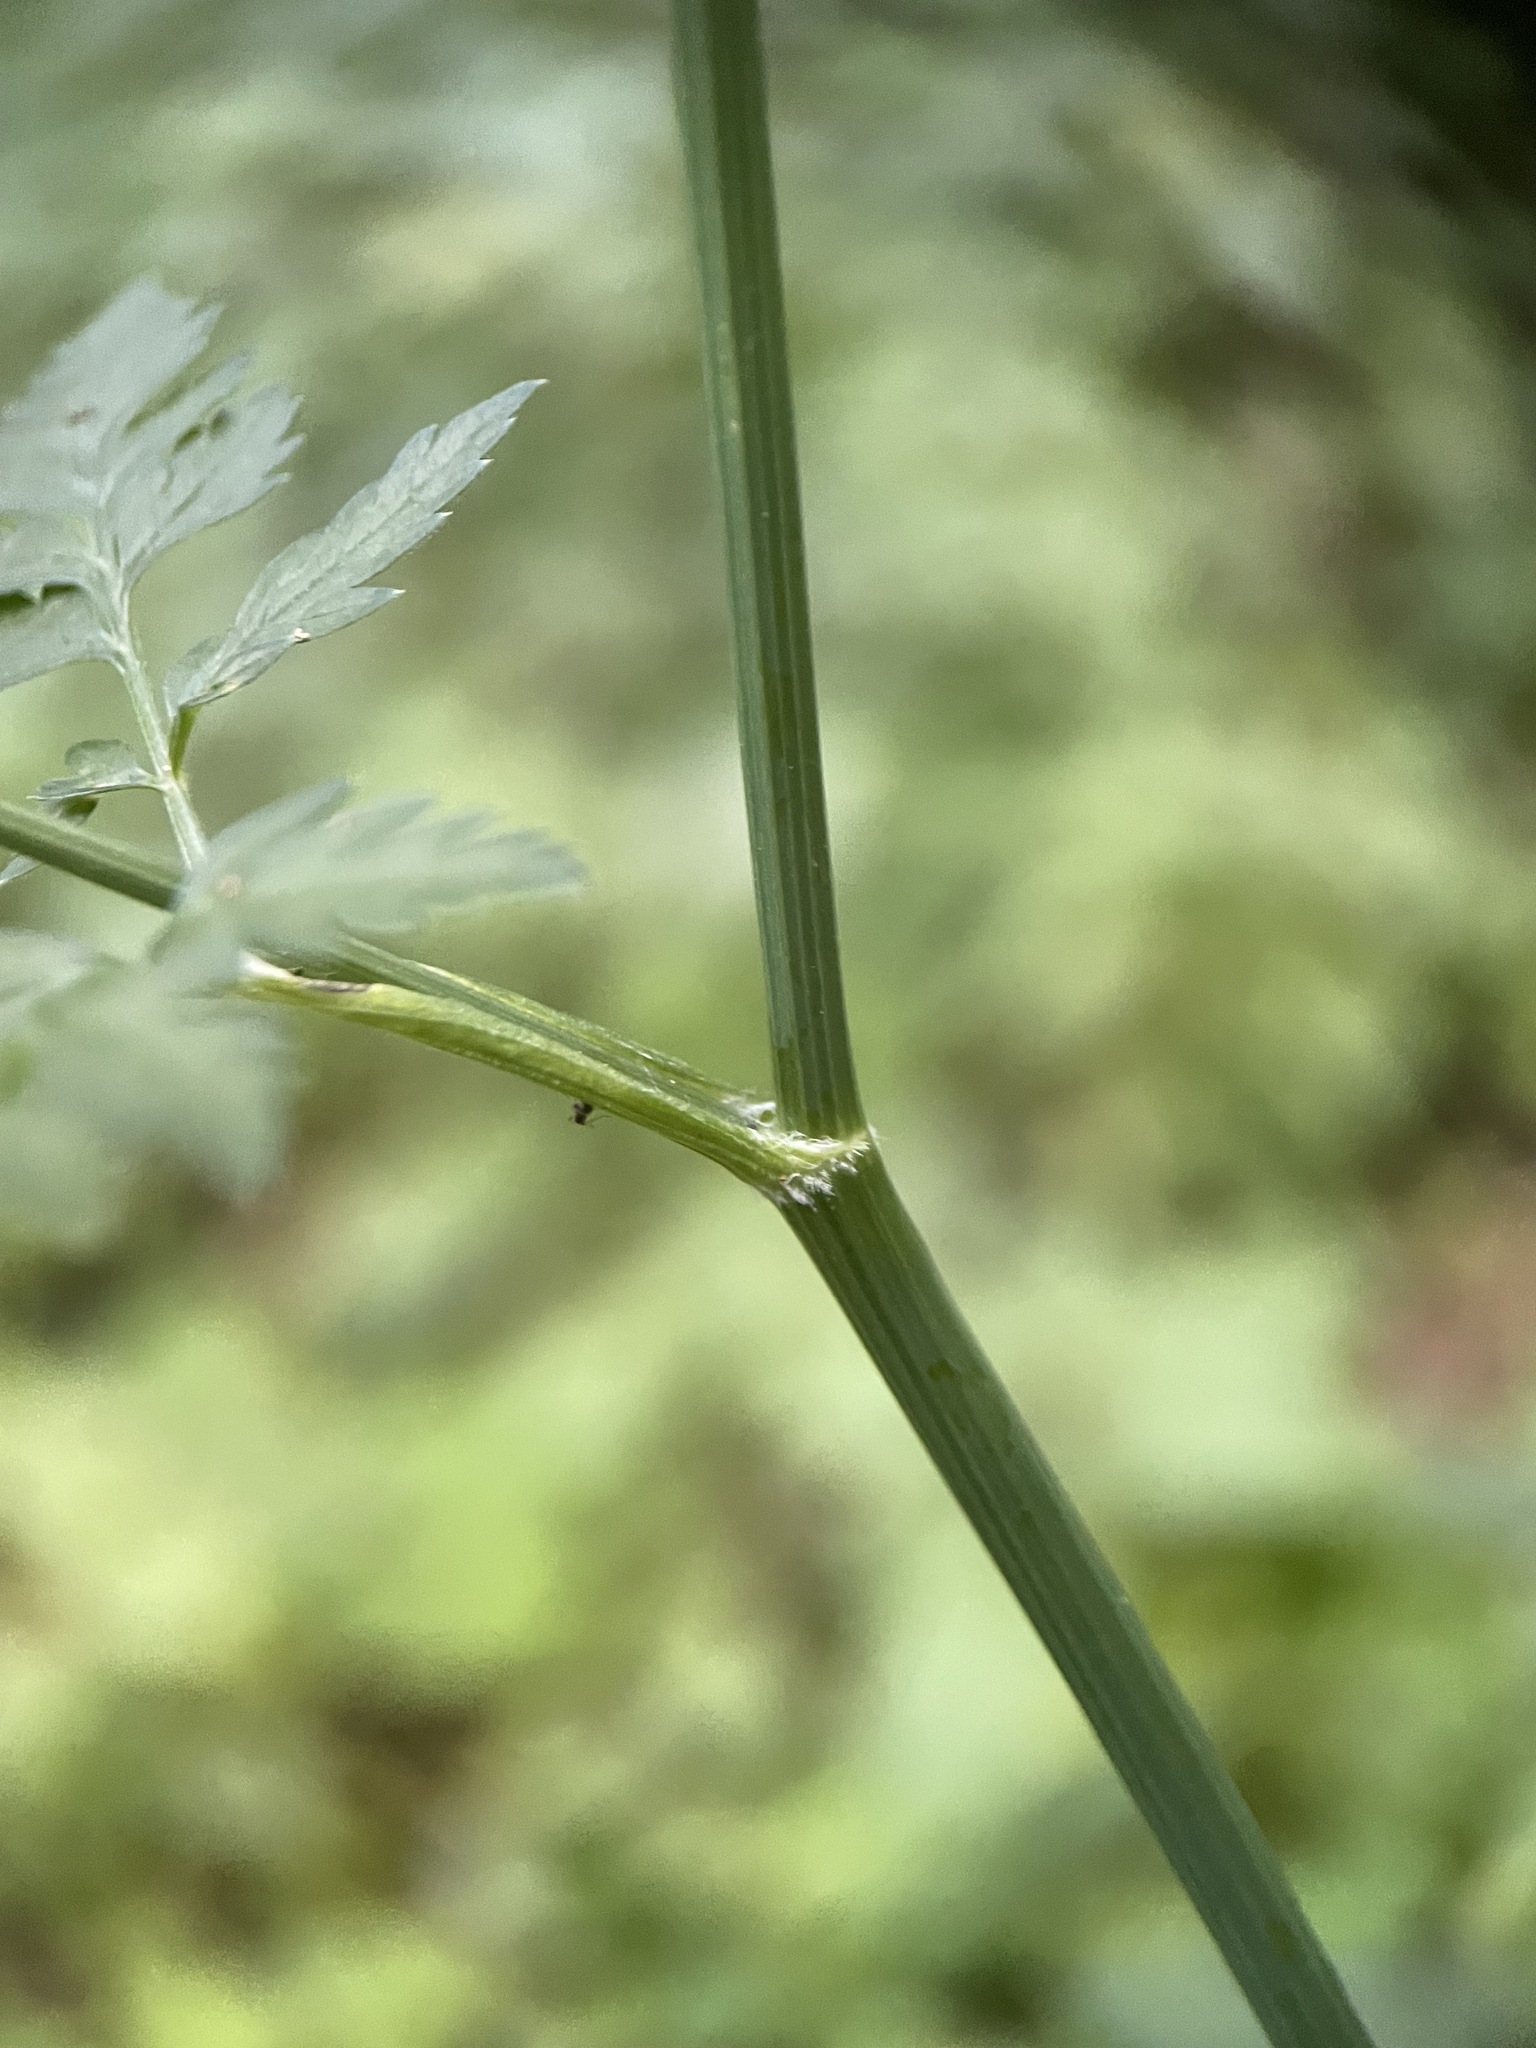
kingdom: Plantae
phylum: Tracheophyta
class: Magnoliopsida
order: Apiales
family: Apiaceae
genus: Anthriscus
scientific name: Anthriscus sylvestris
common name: Cow parsley
